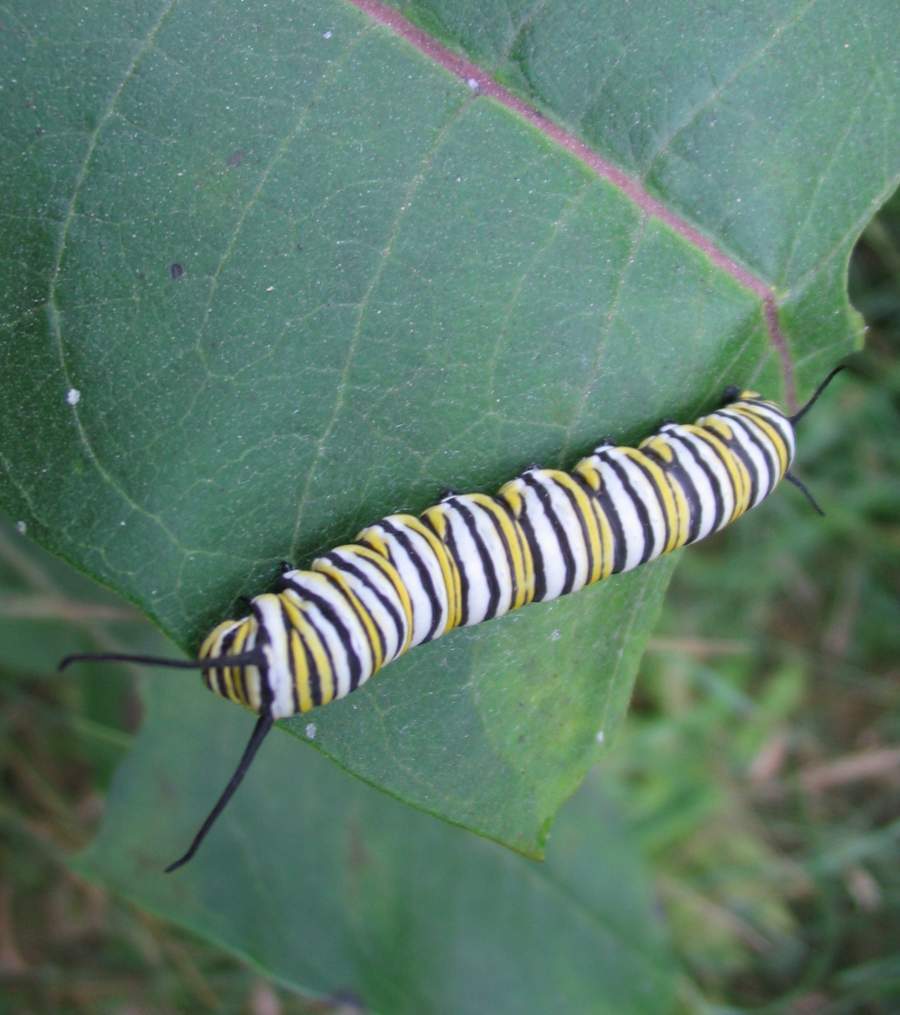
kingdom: Animalia
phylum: Arthropoda
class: Insecta
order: Lepidoptera
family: Nymphalidae
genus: Danaus
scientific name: Danaus plexippus
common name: Monarch
